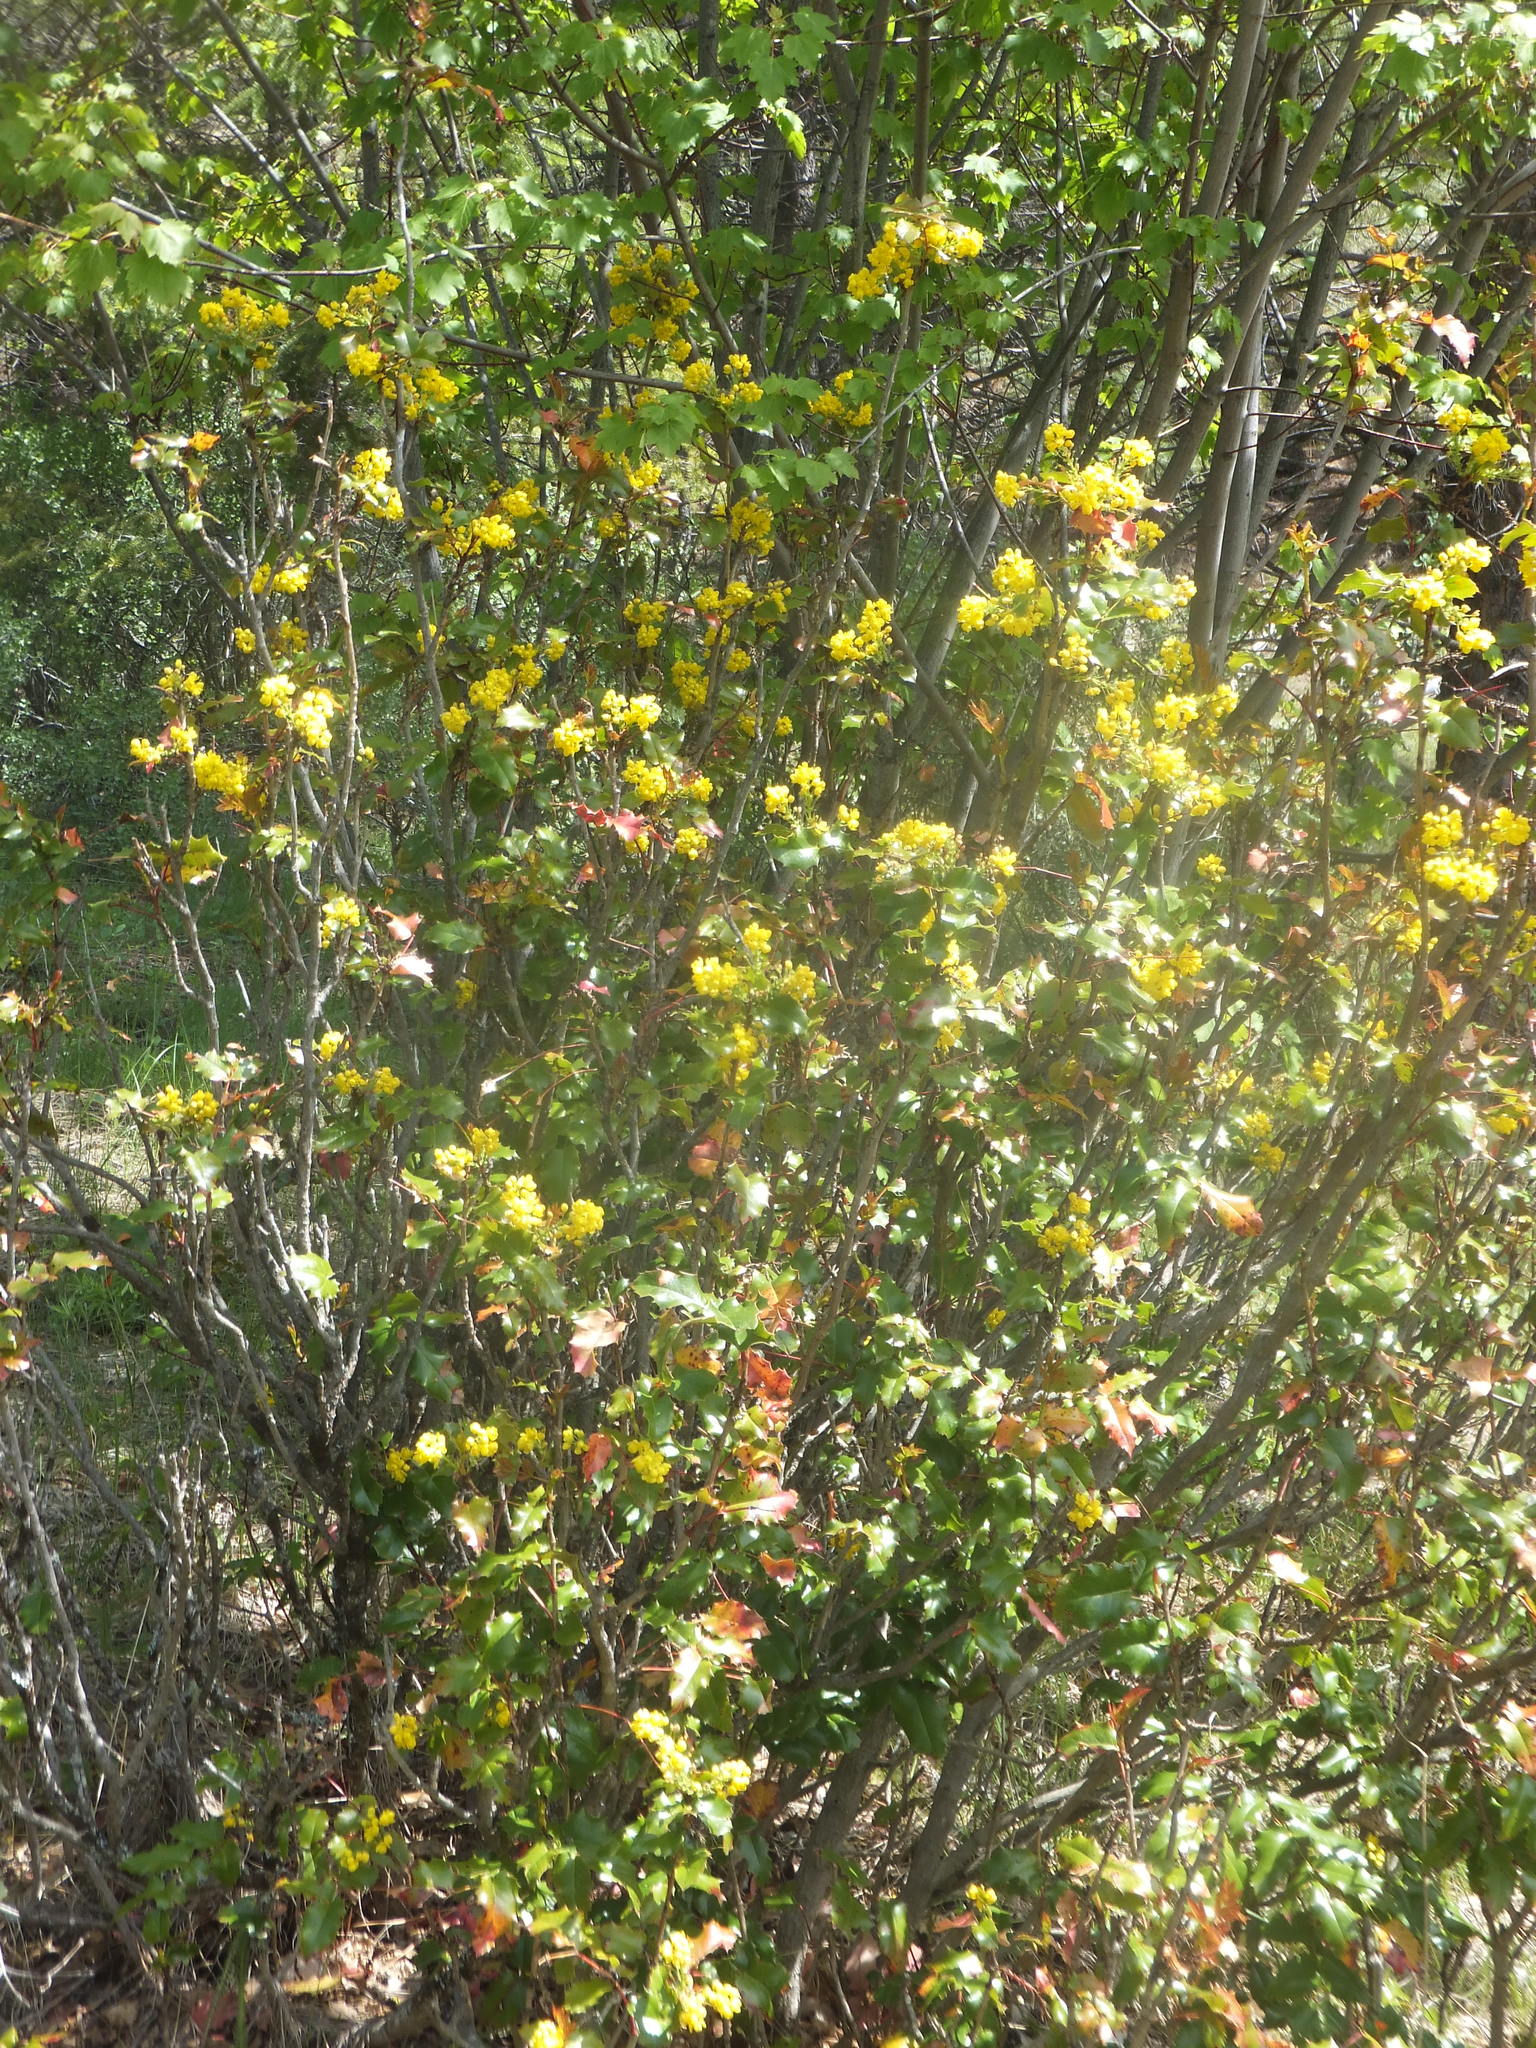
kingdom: Plantae
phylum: Tracheophyta
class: Magnoliopsida
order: Ranunculales
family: Berberidaceae
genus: Mahonia
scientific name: Mahonia aquifolium
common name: Oregon-grape
